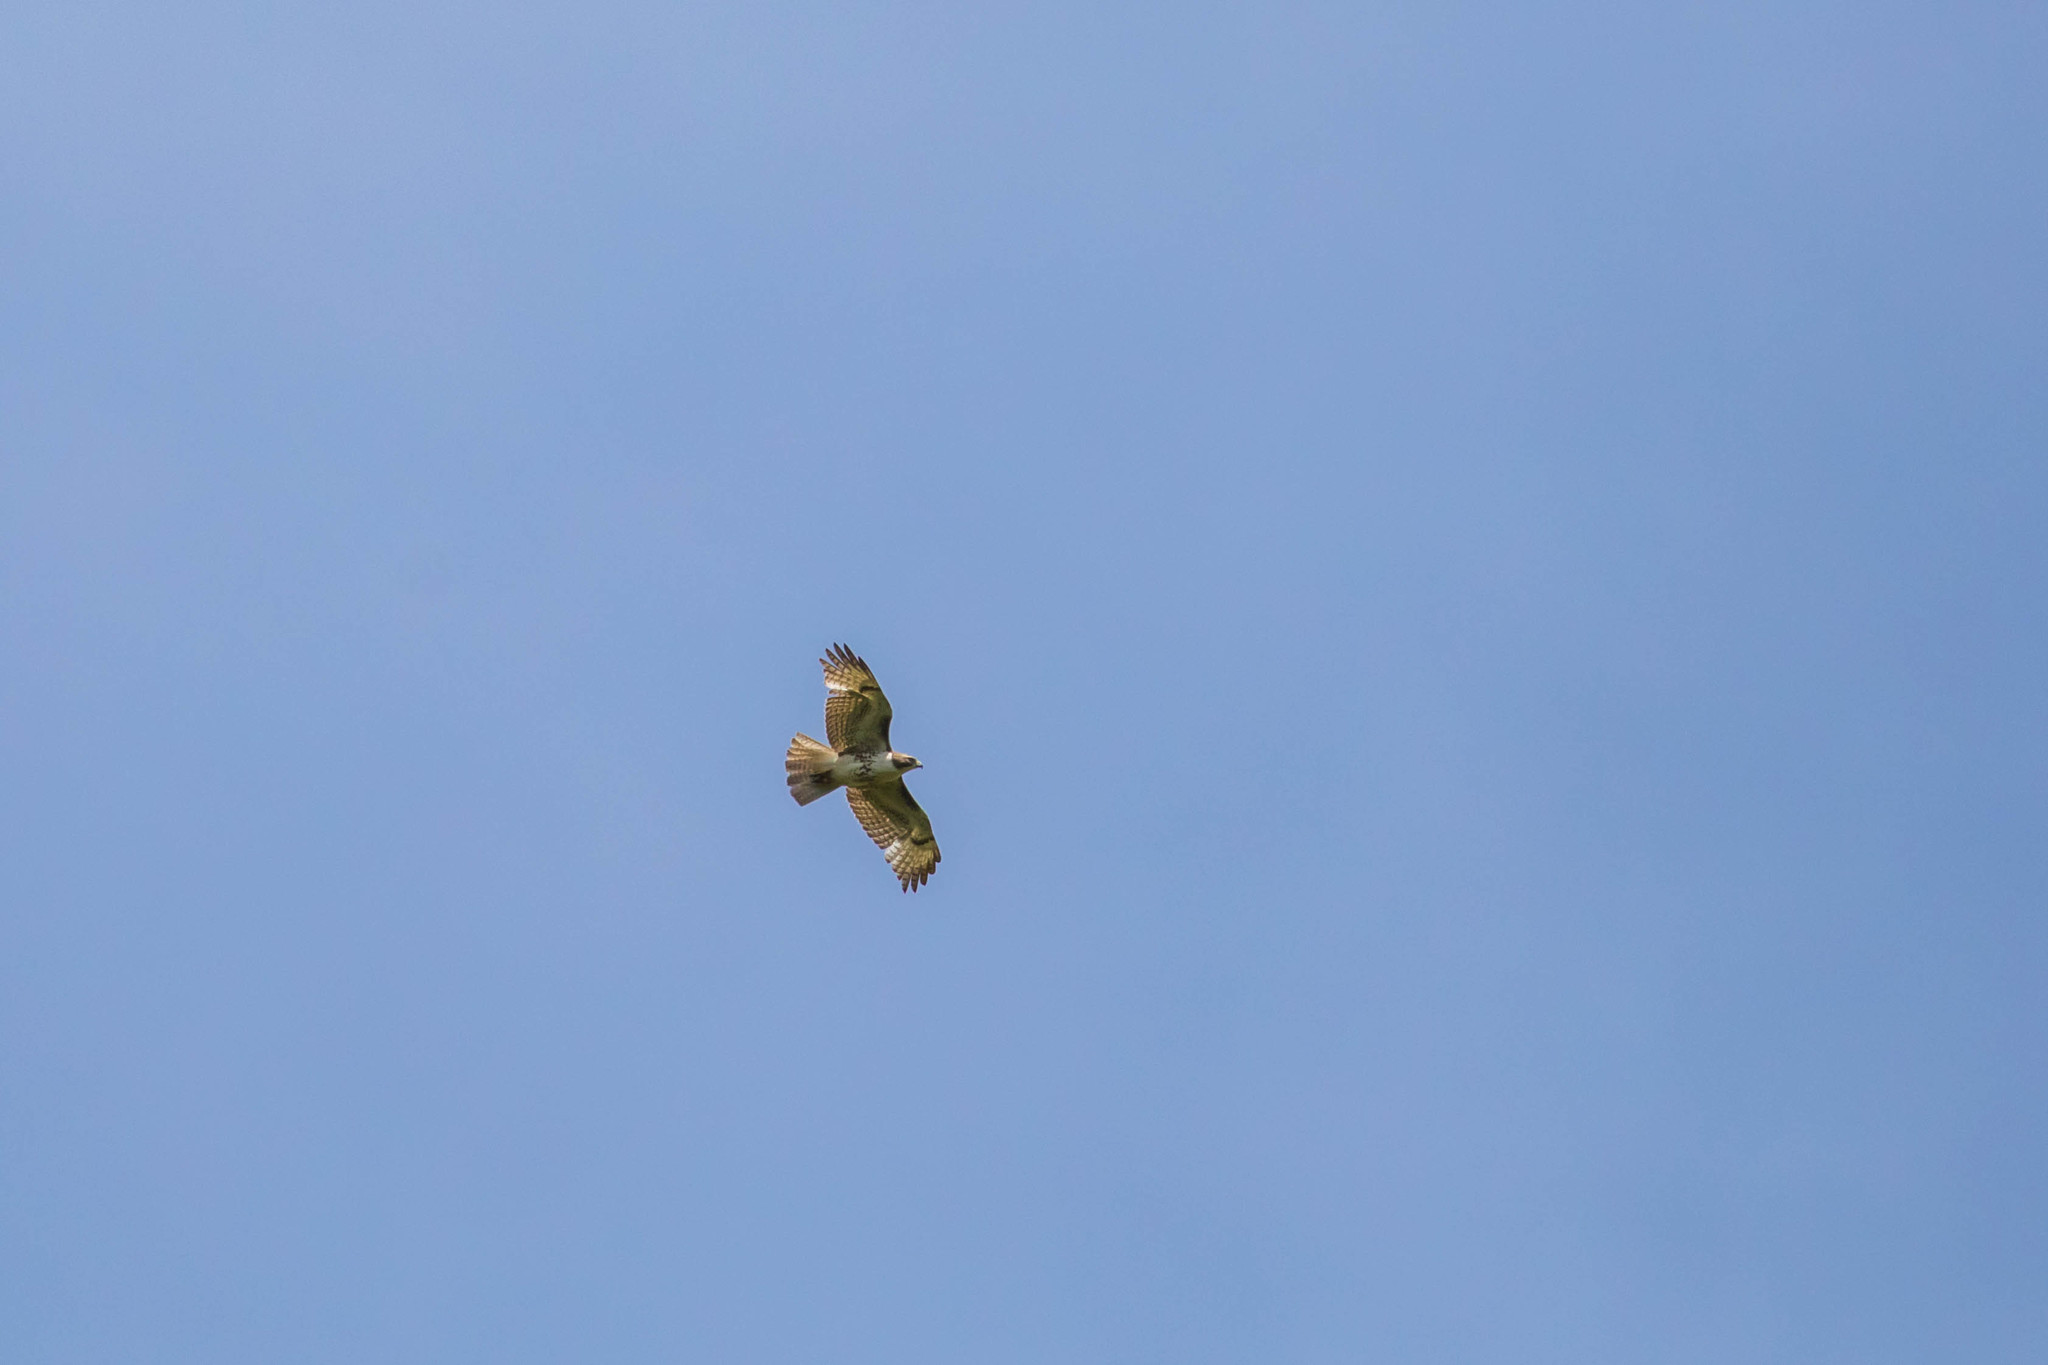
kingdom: Animalia
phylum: Chordata
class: Aves
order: Accipitriformes
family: Accipitridae
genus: Buteo
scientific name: Buteo jamaicensis
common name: Red-tailed hawk
